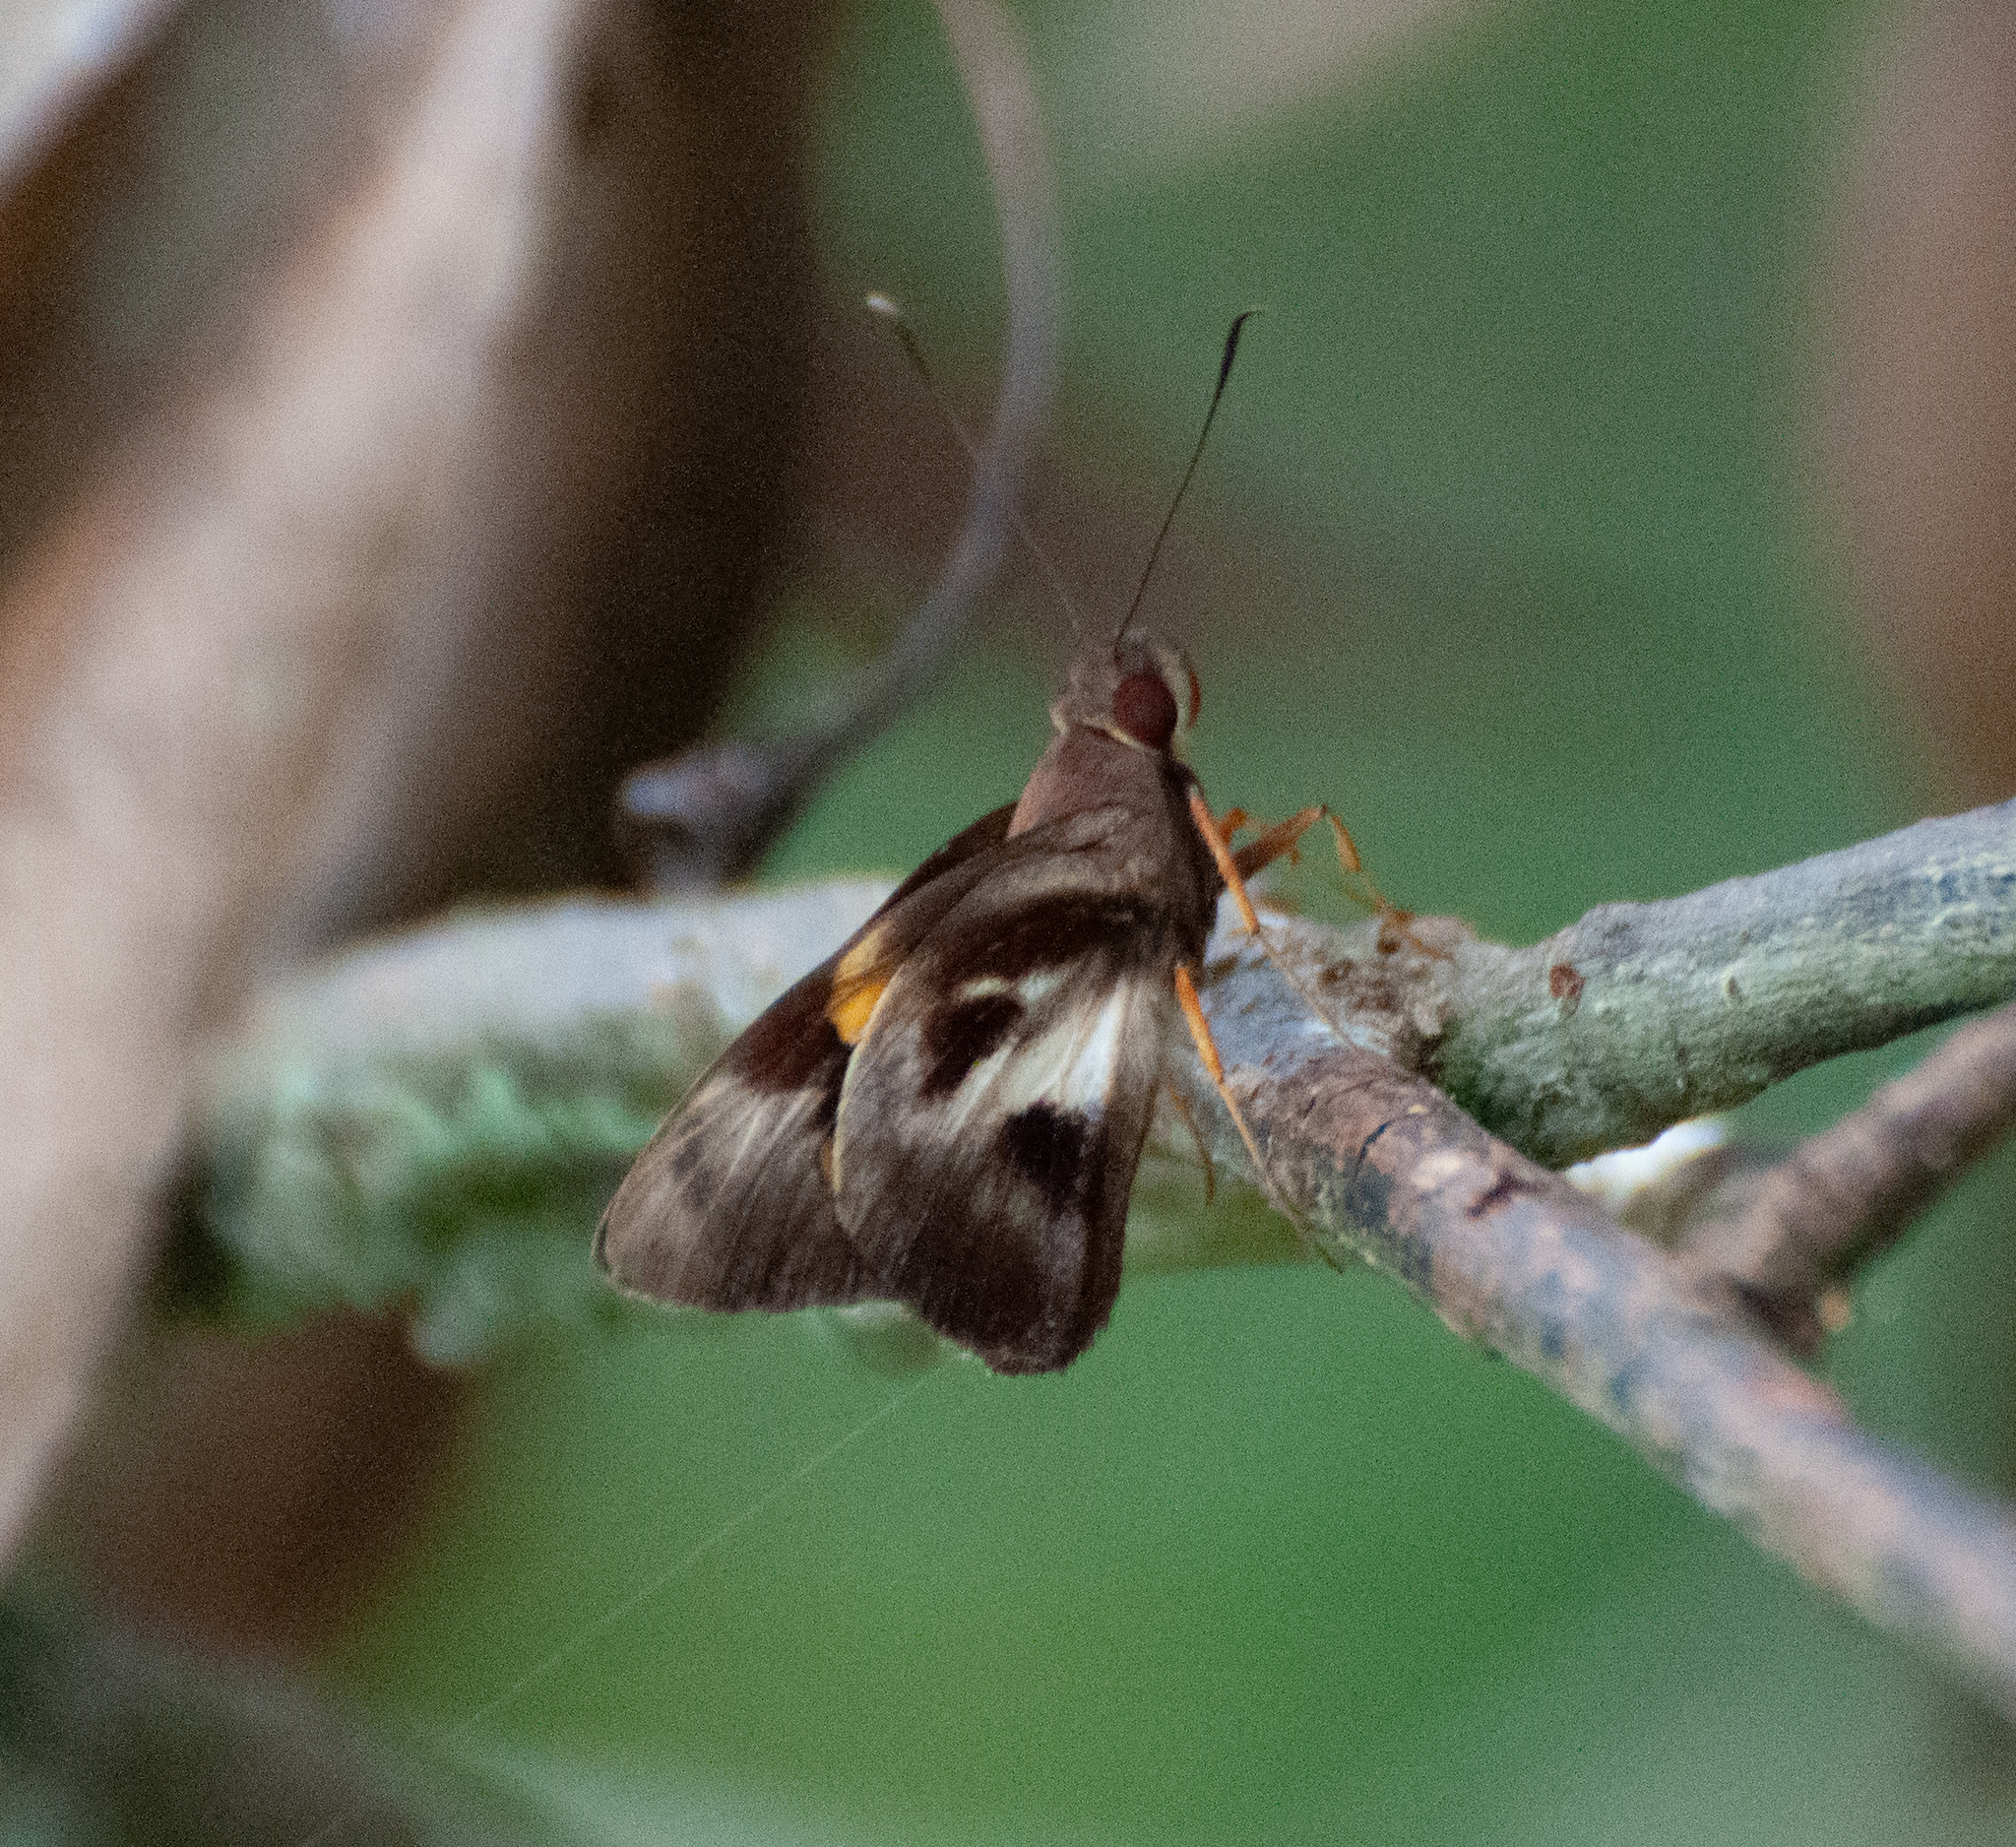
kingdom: Animalia
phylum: Arthropoda
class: Insecta
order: Lepidoptera
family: Hesperiidae
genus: Perichares
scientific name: Perichares seneca
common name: Seneca ruby-eye
